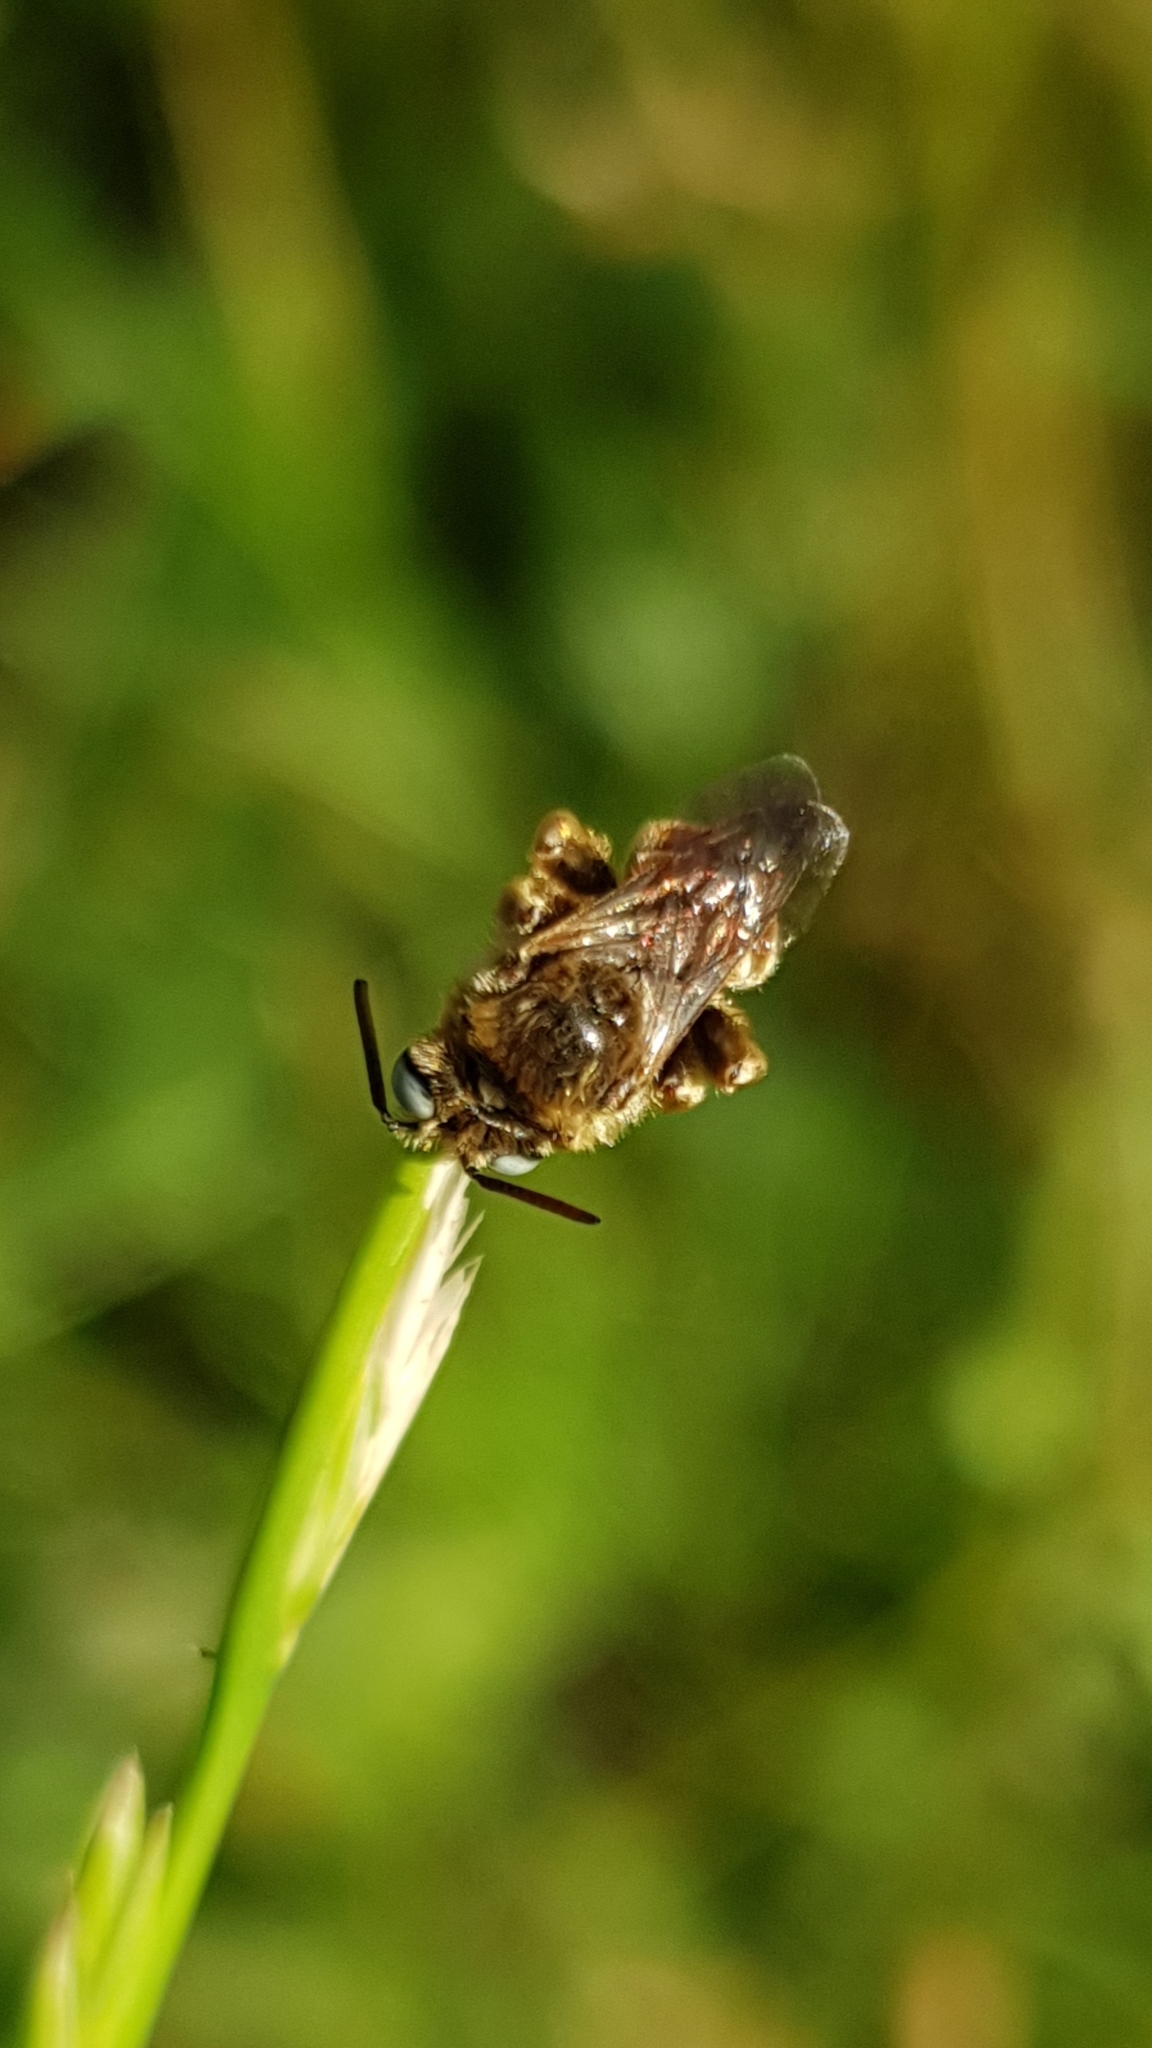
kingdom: Animalia
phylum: Arthropoda
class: Insecta
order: Hymenoptera
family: Apidae
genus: Epeoloides
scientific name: Epeoloides coecutiens
